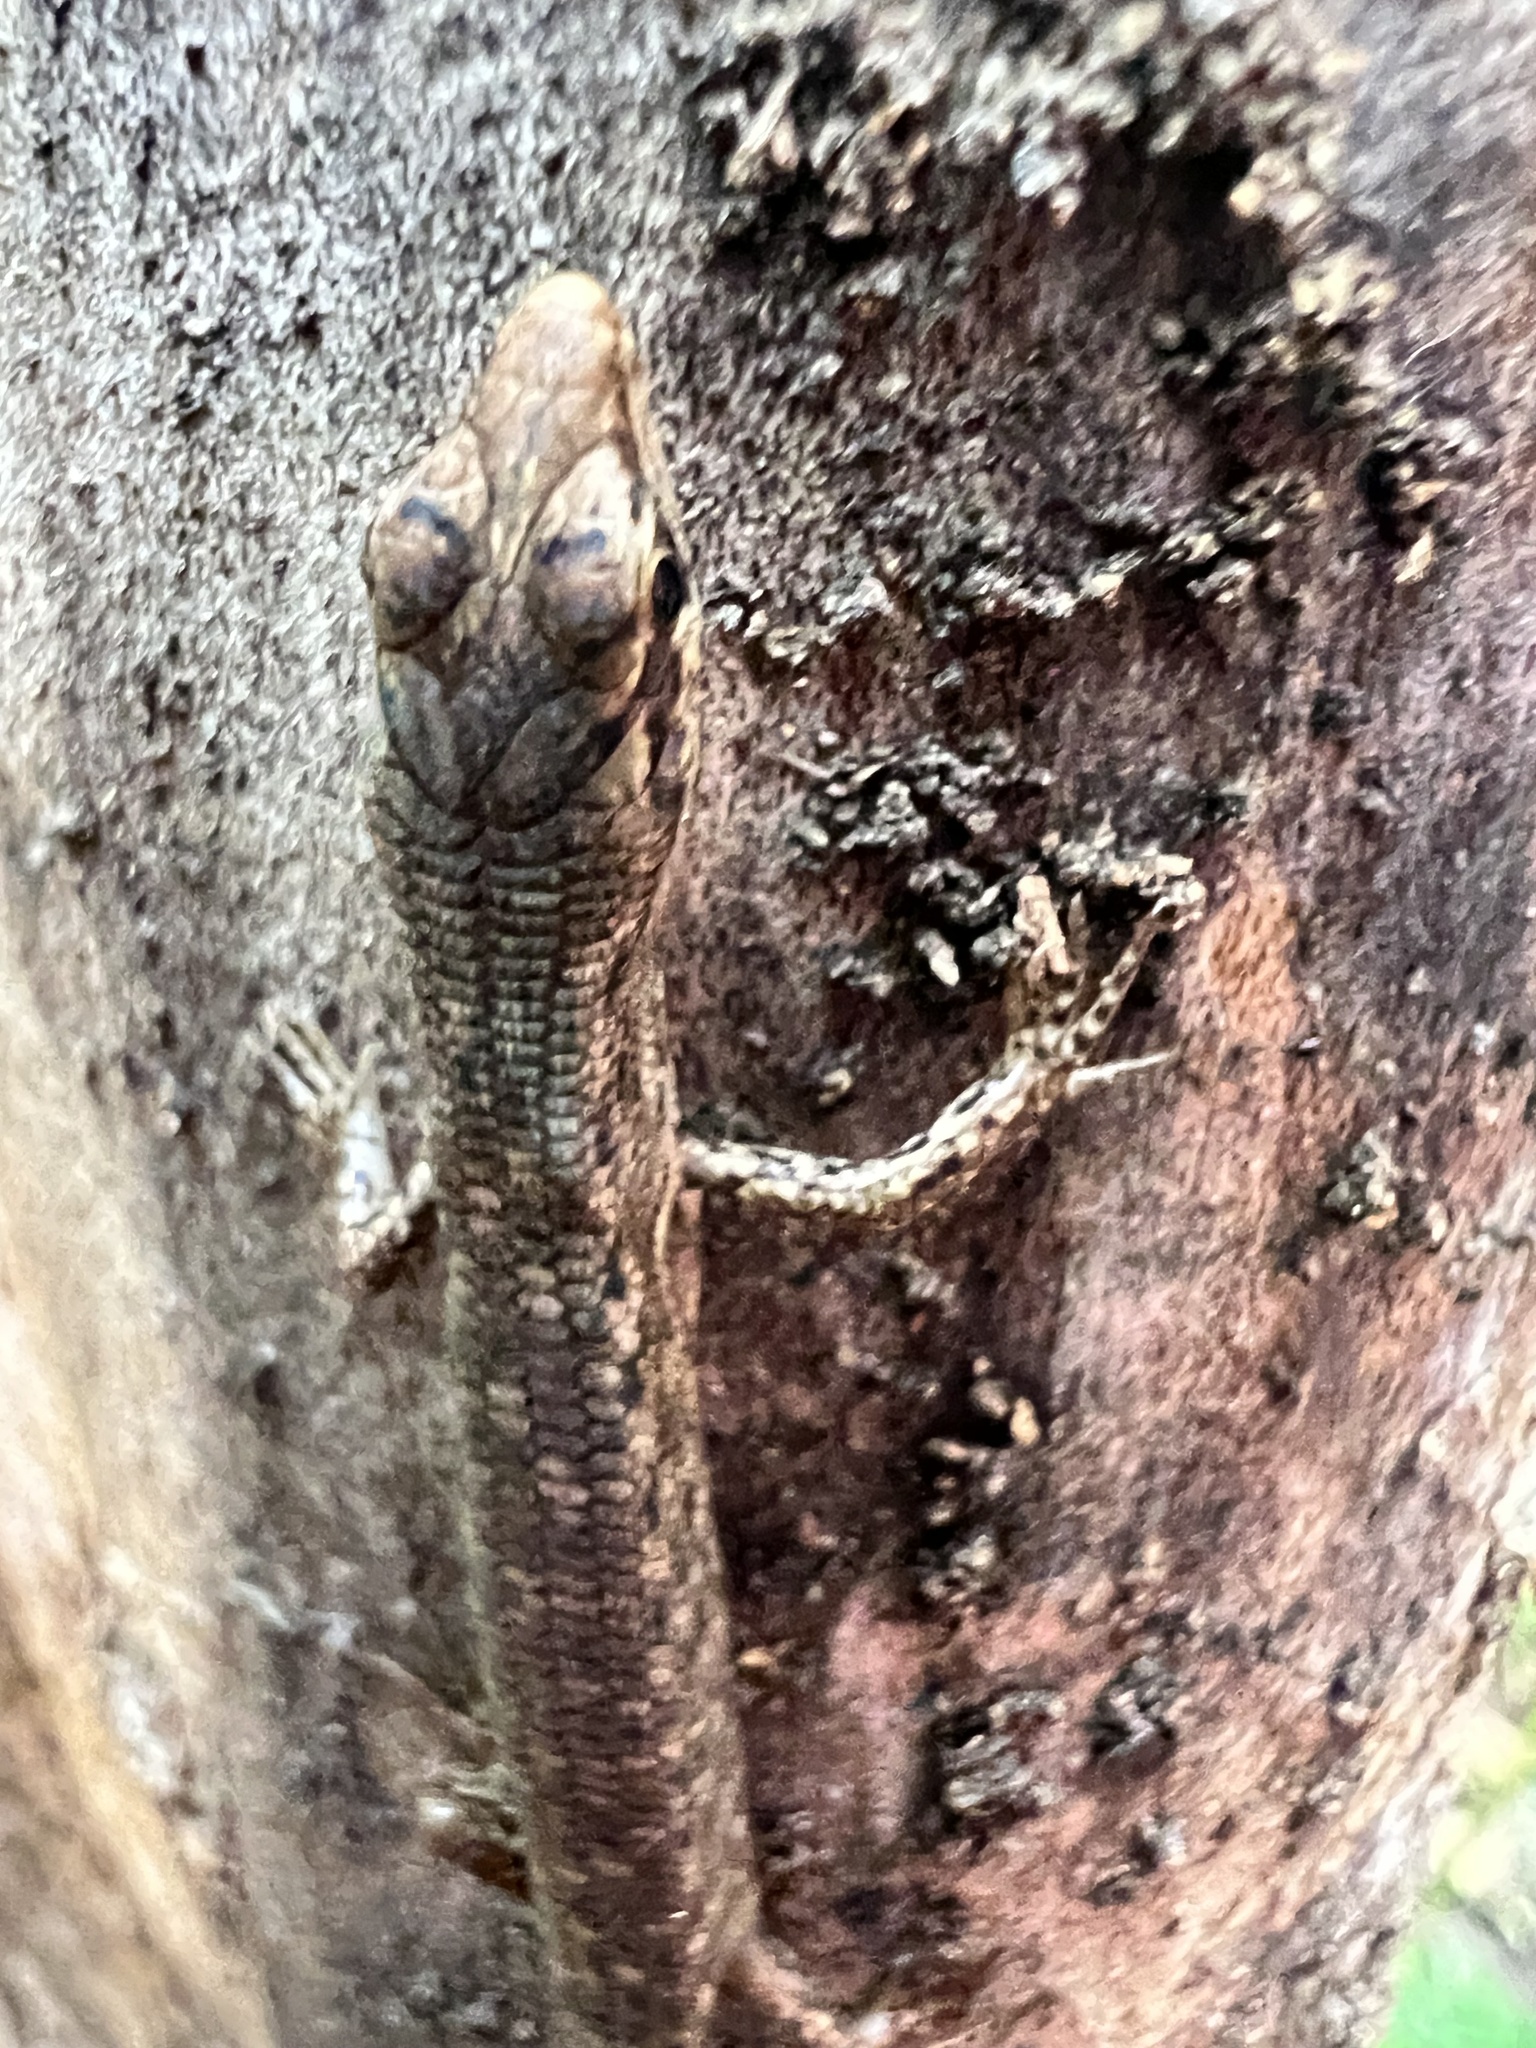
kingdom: Animalia
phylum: Chordata
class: Squamata
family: Scincidae
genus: Saproscincus
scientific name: Saproscincus spectabilis
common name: Gully shadeskink
